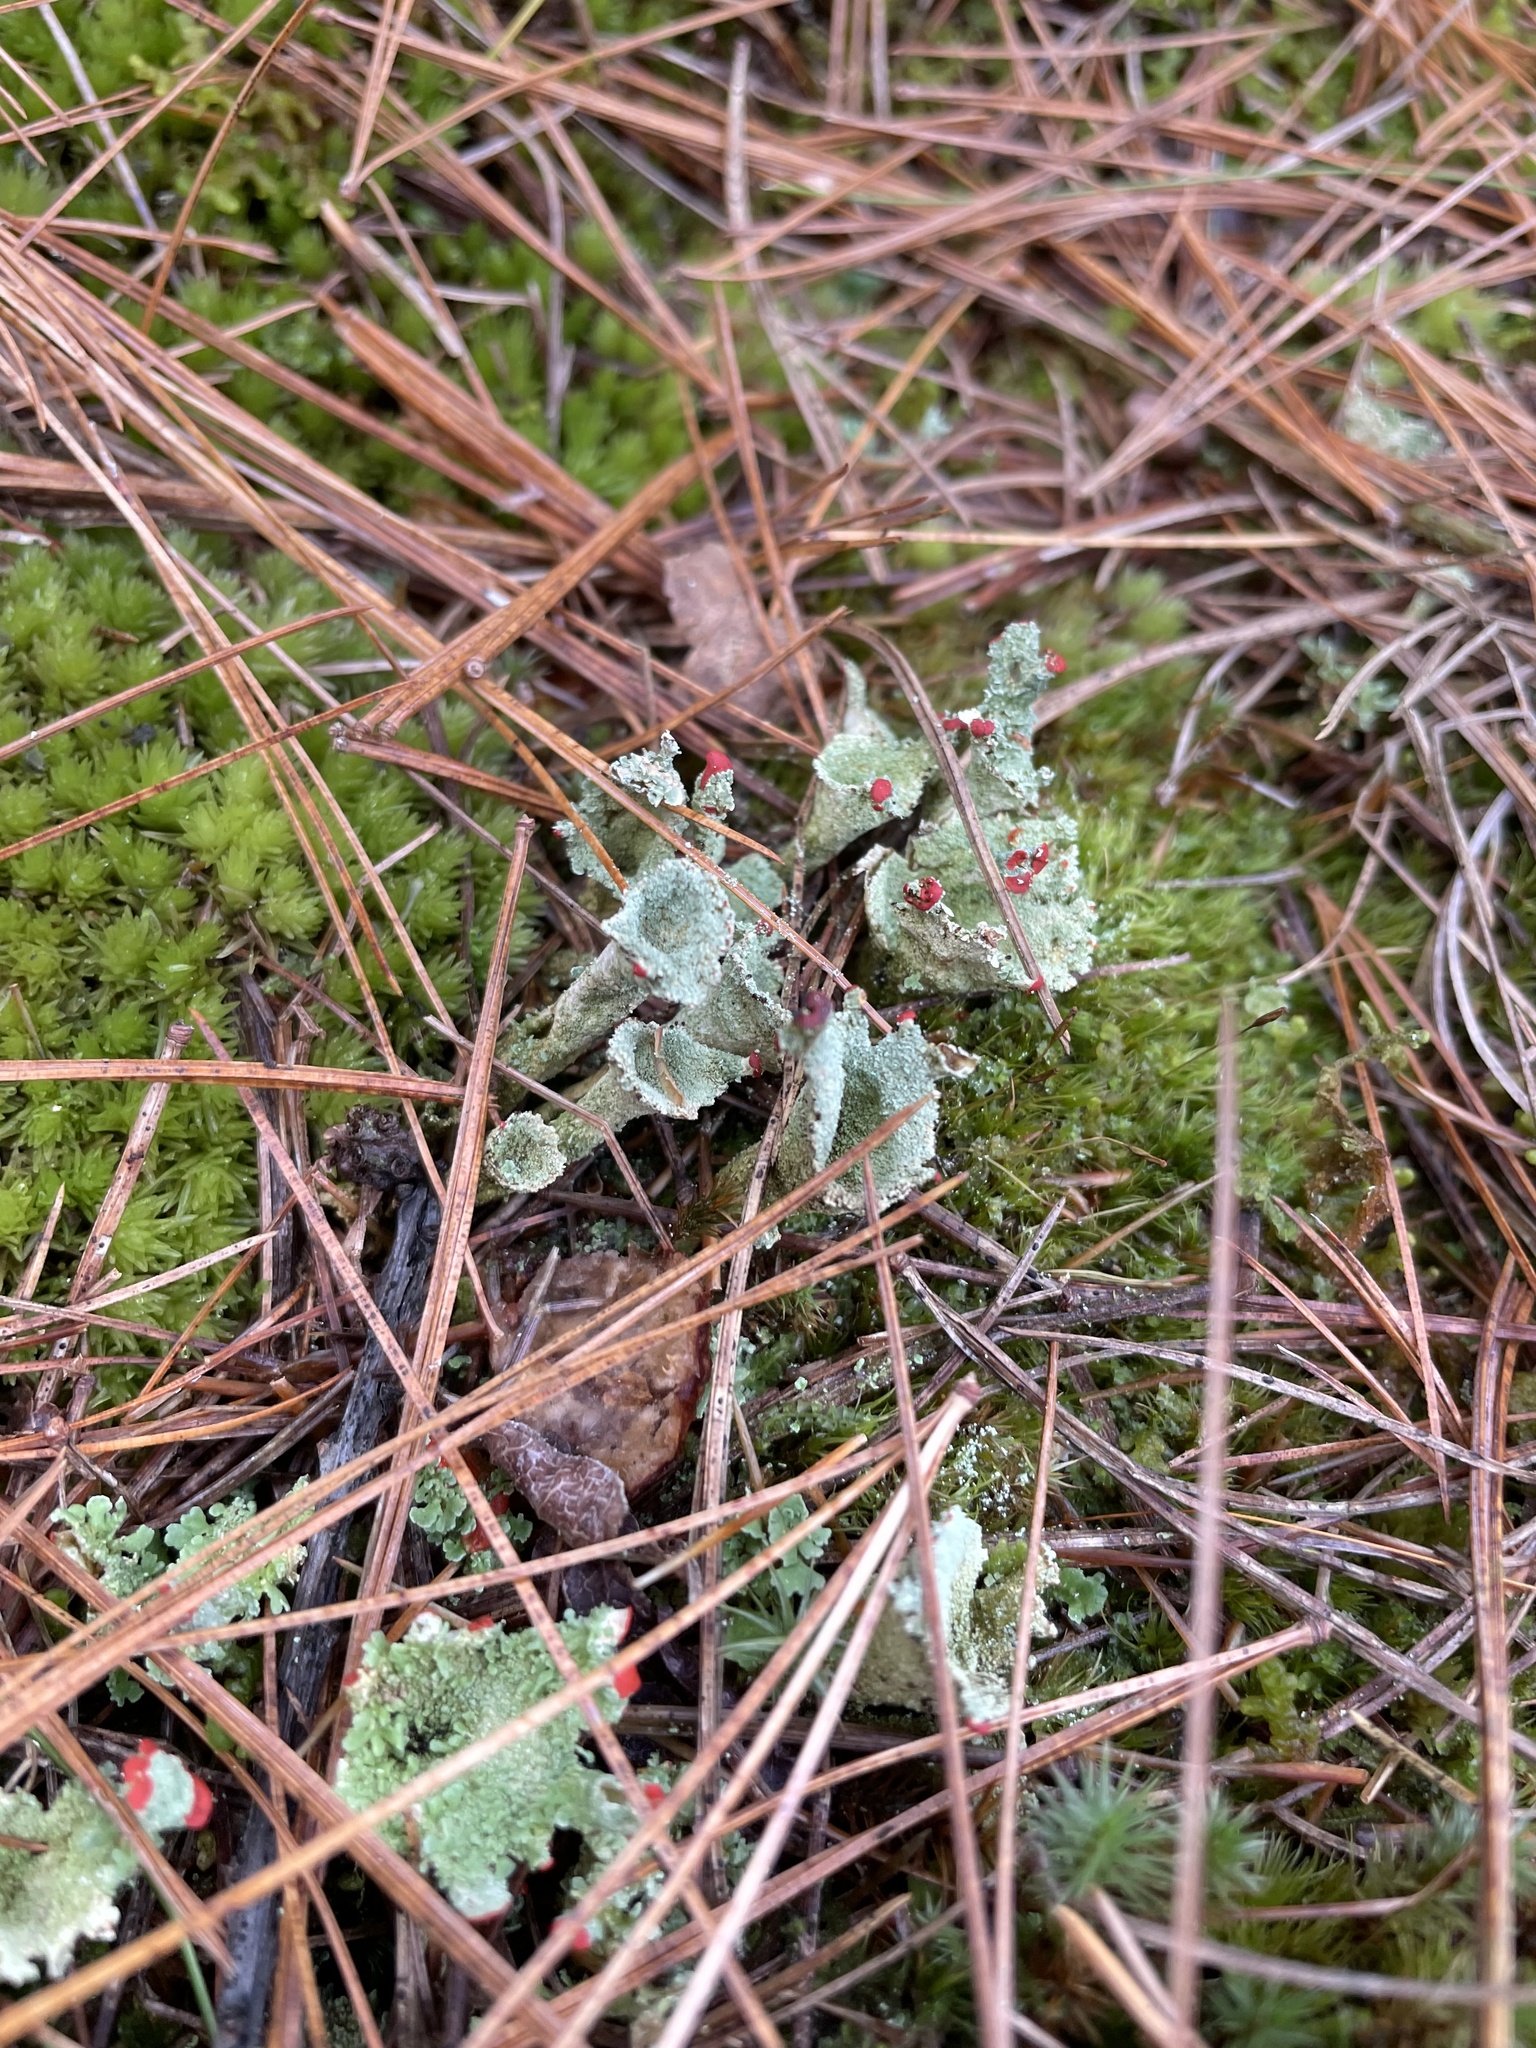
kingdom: Fungi
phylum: Ascomycota
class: Lecanoromycetes
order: Lecanorales
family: Cladoniaceae
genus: Cladonia
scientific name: Cladonia pleurota
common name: Red-fruited pixie cup
